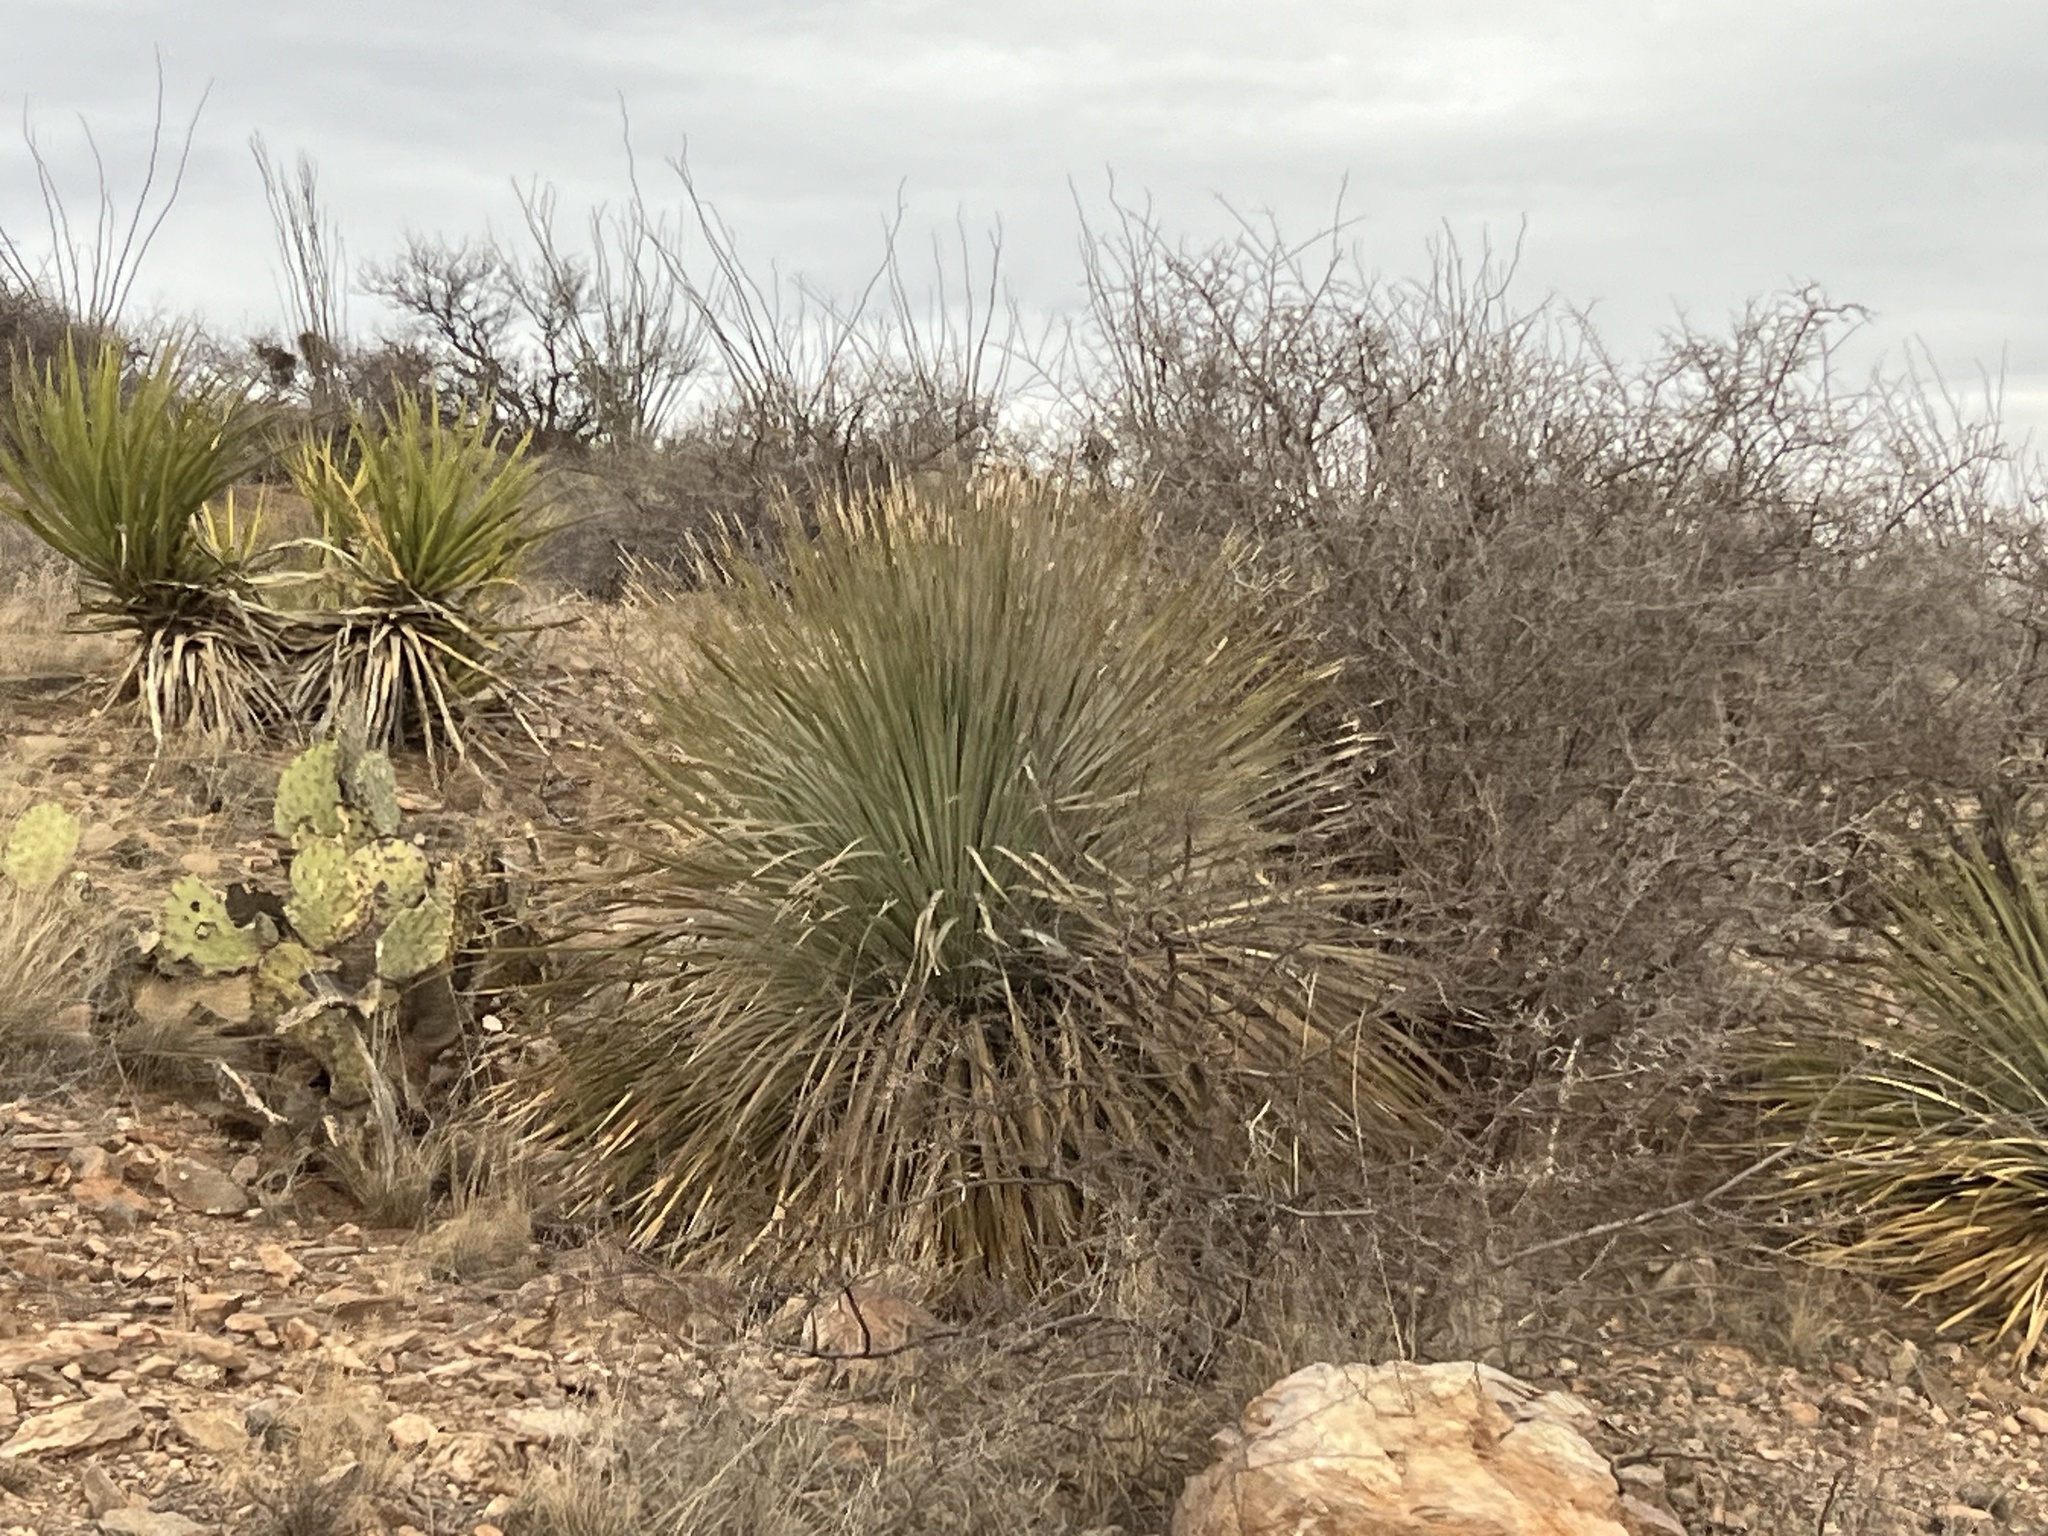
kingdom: Plantae
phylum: Tracheophyta
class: Liliopsida
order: Asparagales
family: Asparagaceae
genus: Dasylirion
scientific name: Dasylirion wheeleri
